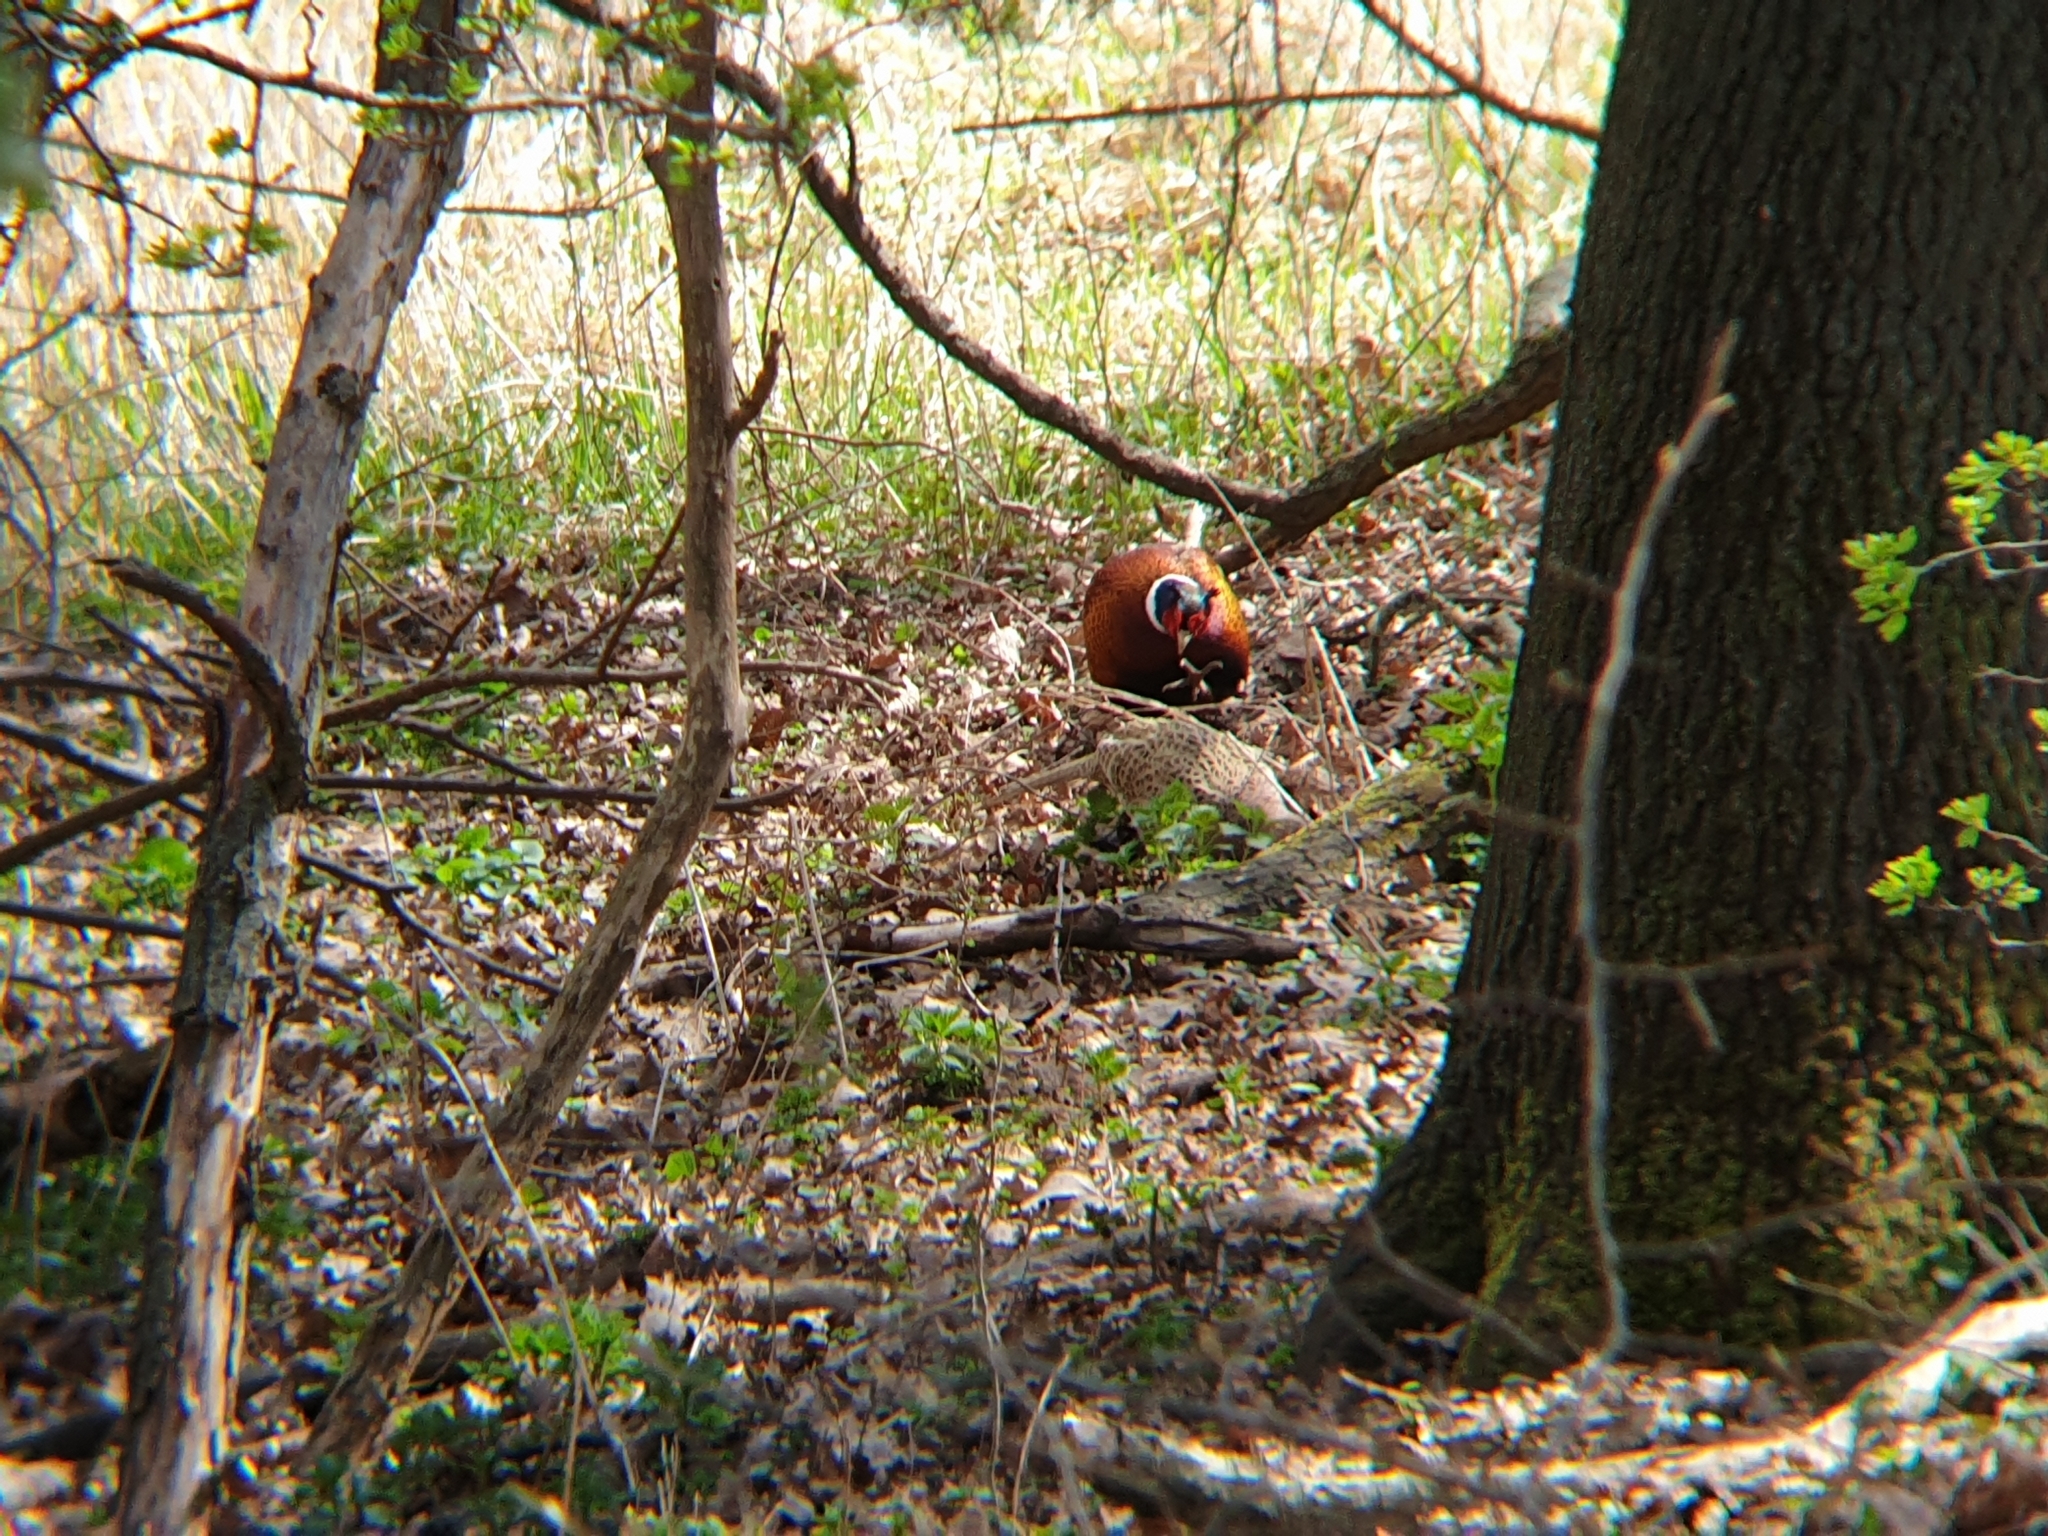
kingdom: Animalia
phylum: Chordata
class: Aves
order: Galliformes
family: Phasianidae
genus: Phasianus
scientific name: Phasianus colchicus
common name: Common pheasant
